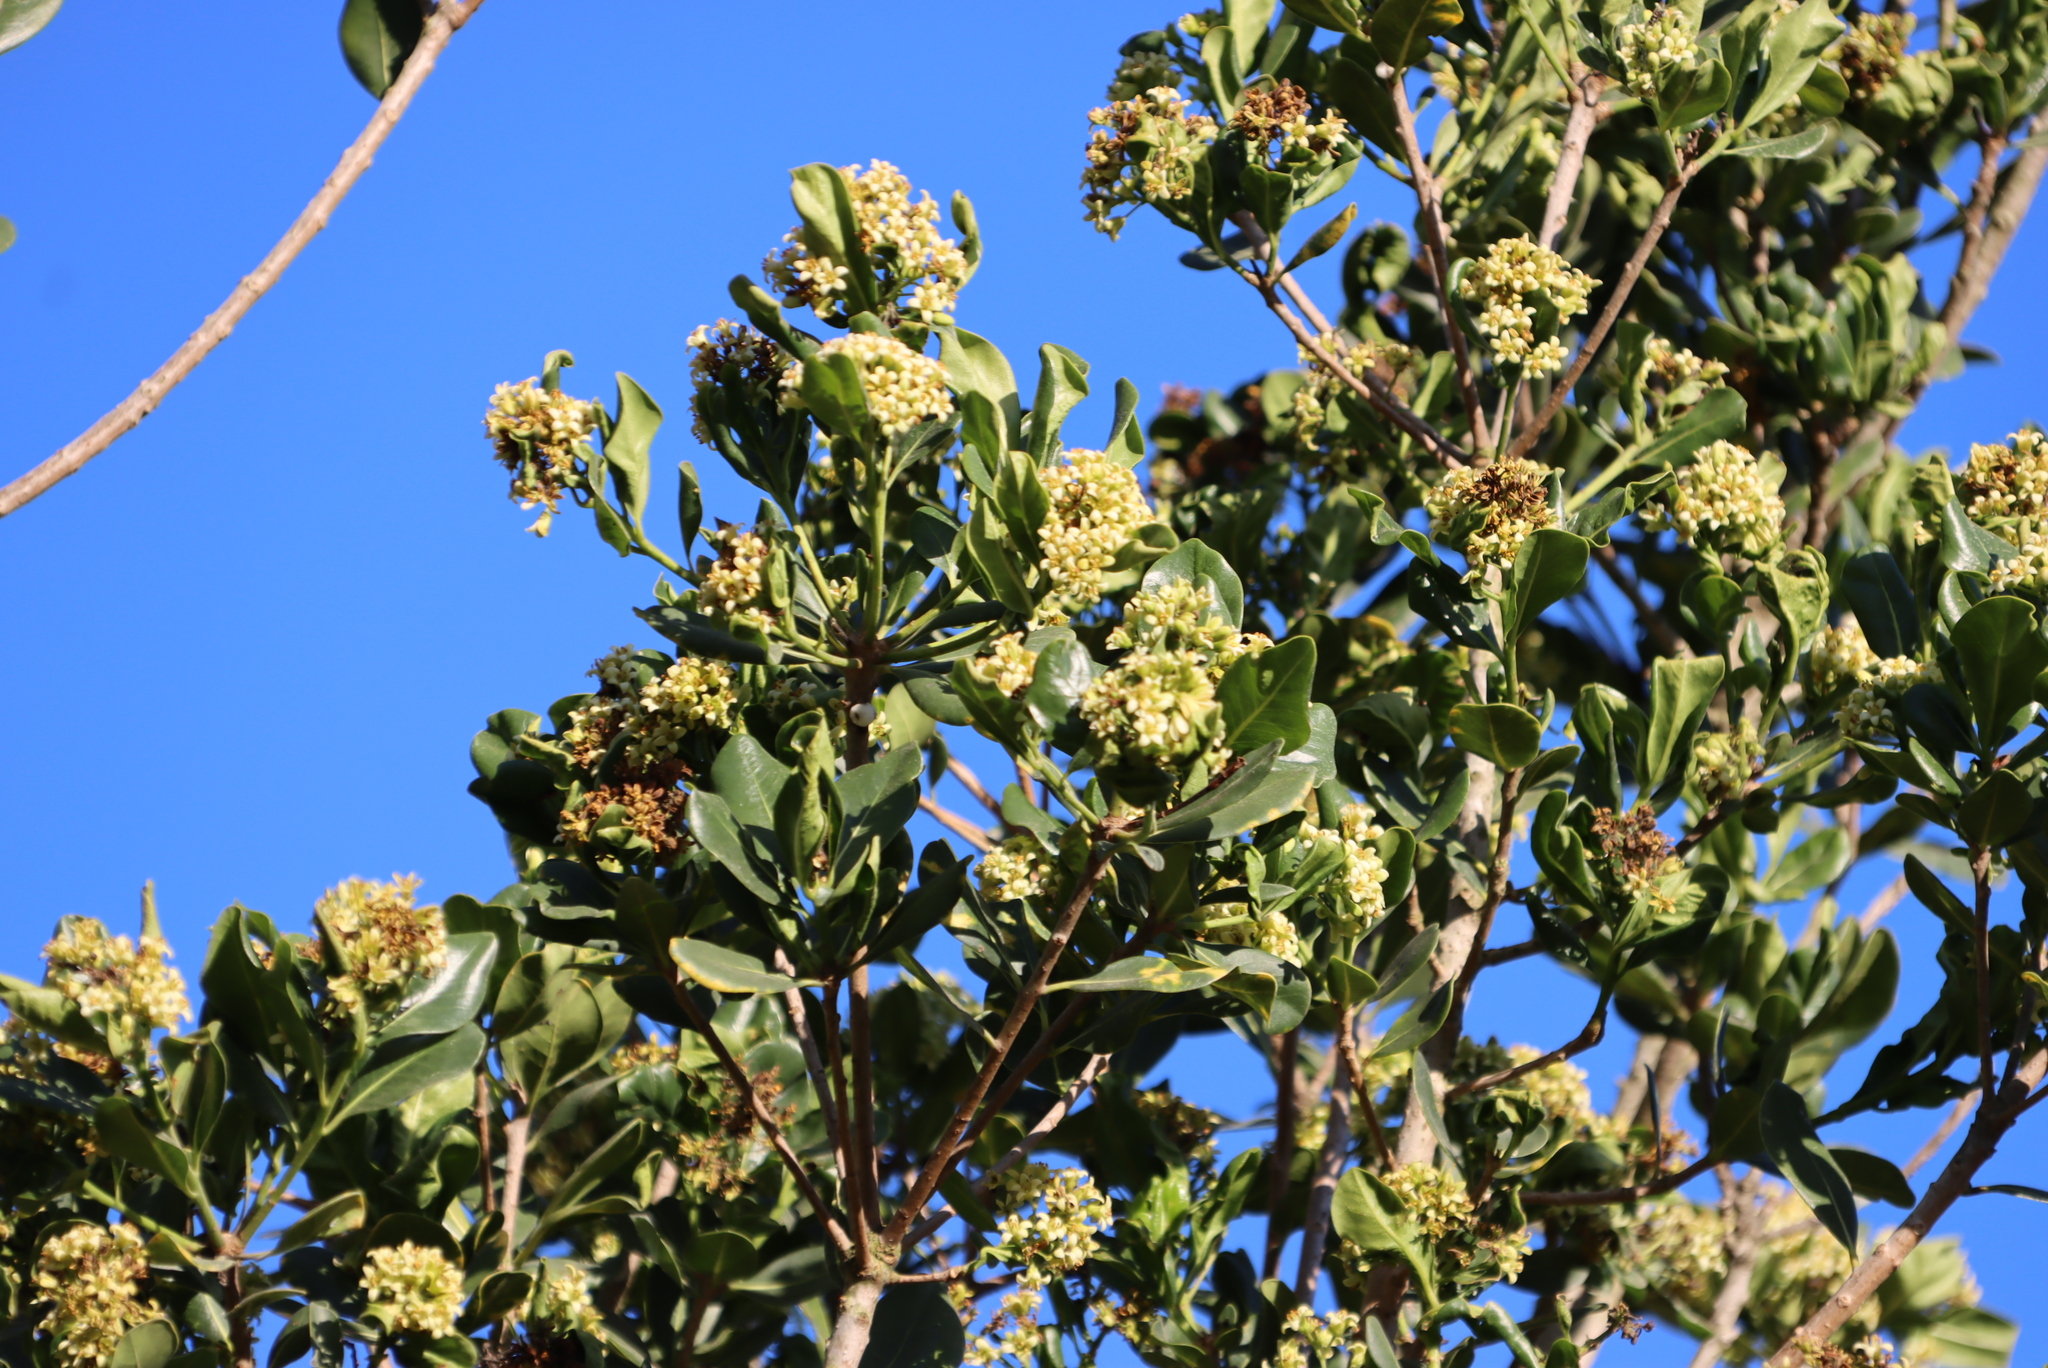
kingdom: Plantae
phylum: Tracheophyta
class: Magnoliopsida
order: Apiales
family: Pittosporaceae
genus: Pittosporum
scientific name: Pittosporum viridiflorum
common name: Cape cheesewood
